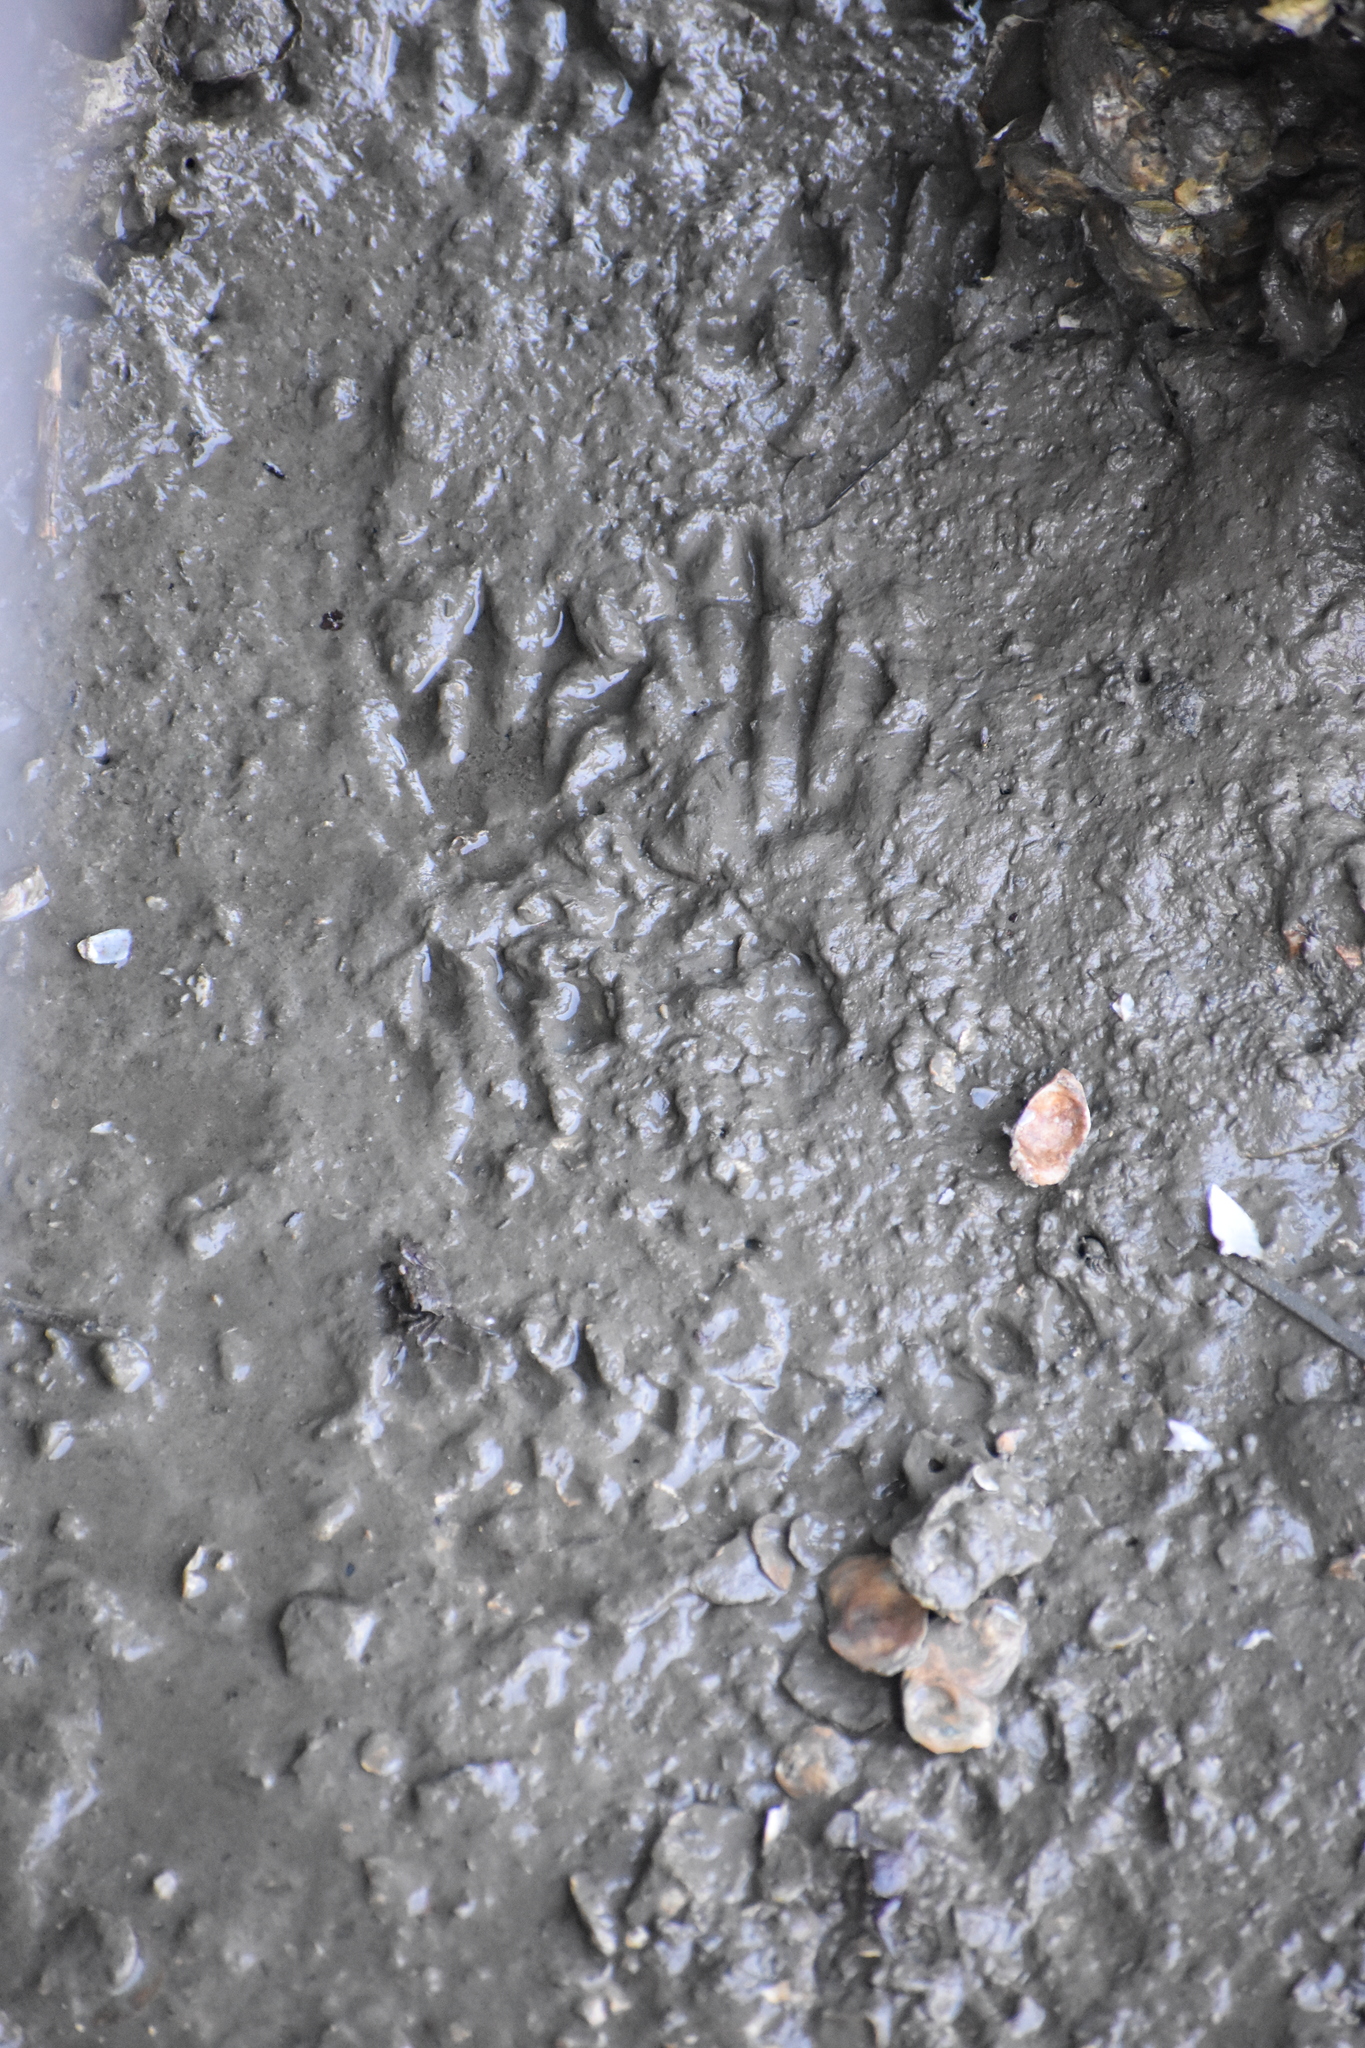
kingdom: Animalia
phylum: Chordata
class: Mammalia
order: Carnivora
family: Procyonidae
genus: Procyon
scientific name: Procyon lotor
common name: Raccoon
